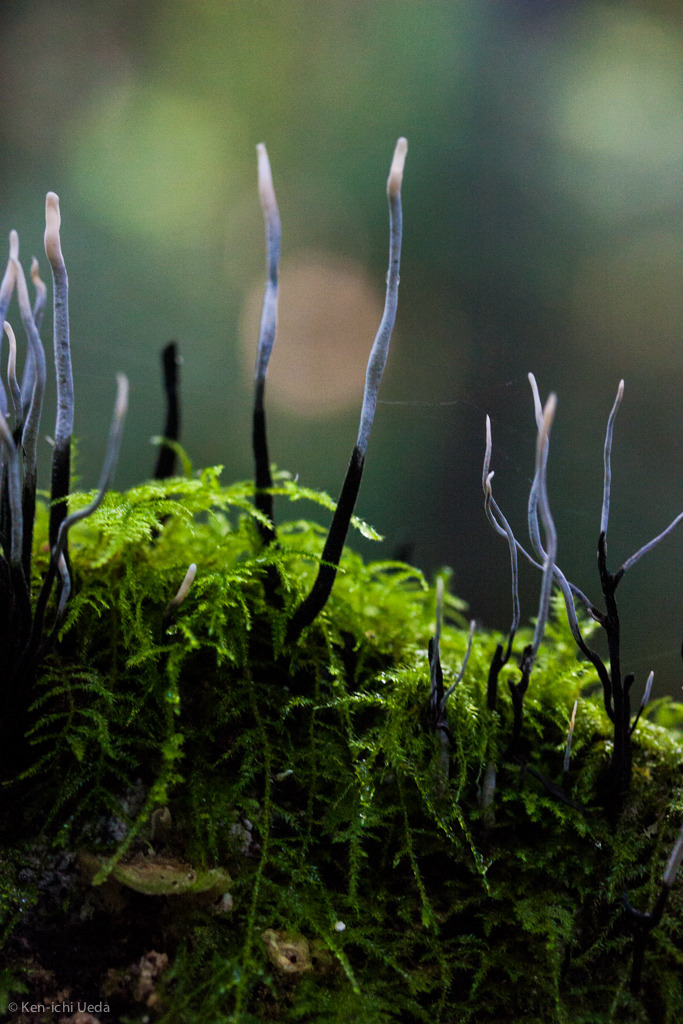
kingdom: Fungi
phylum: Ascomycota
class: Sordariomycetes
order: Xylariales
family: Xylariaceae
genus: Xylaria
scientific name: Xylaria hypoxylon
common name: Candle-snuff fungus
